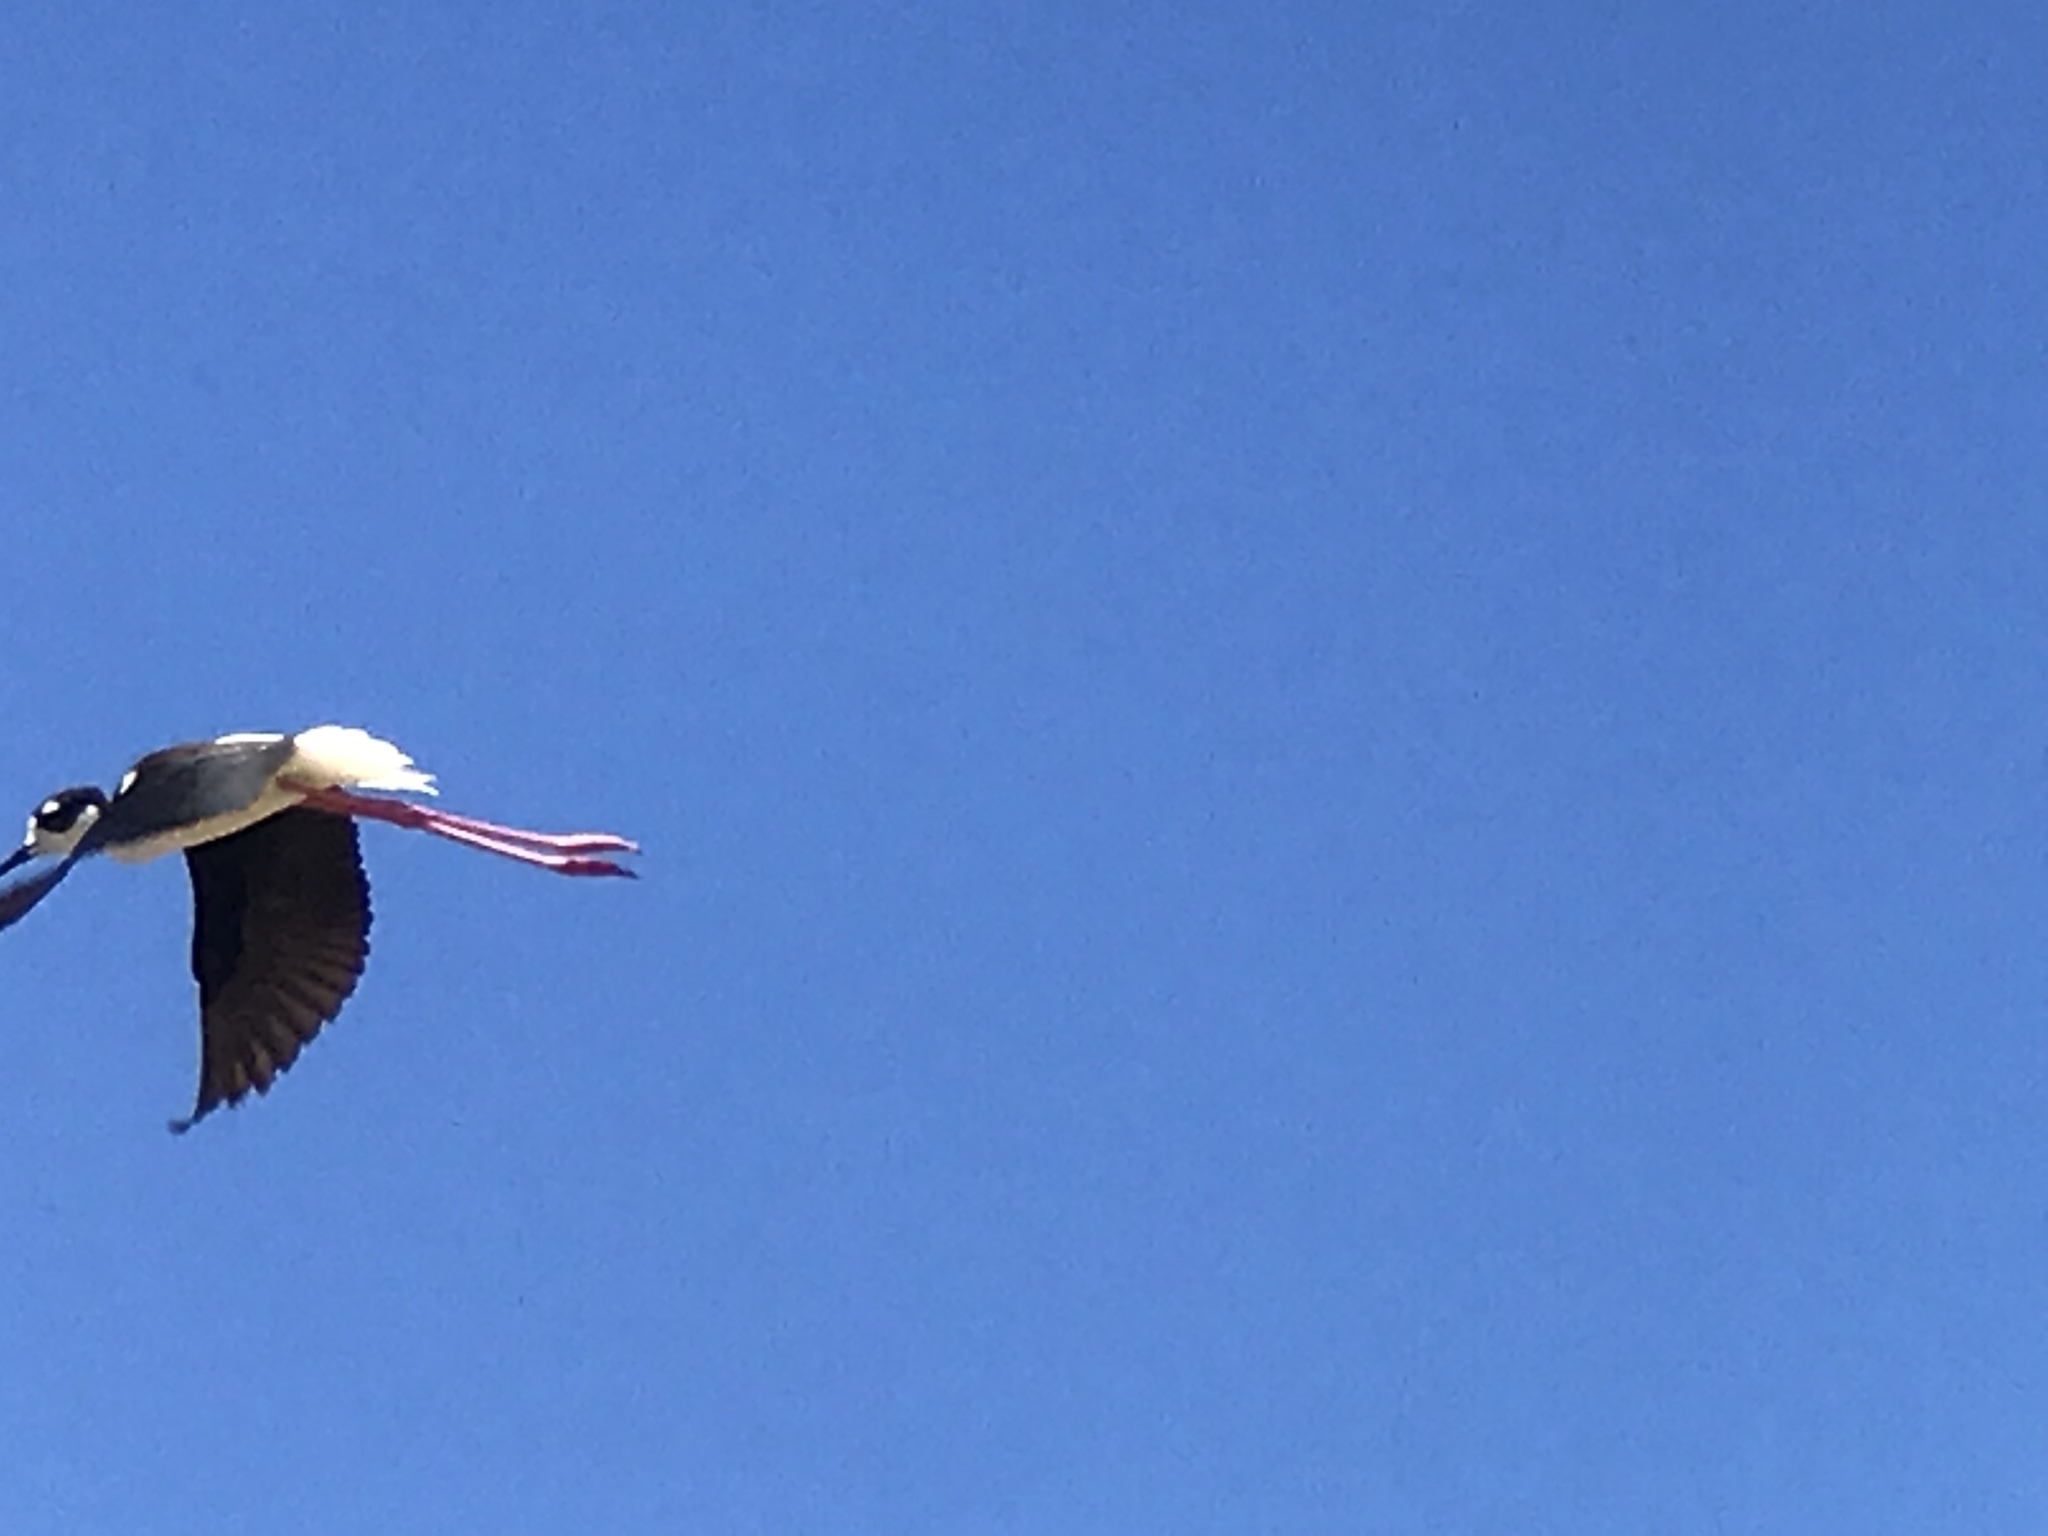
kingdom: Animalia
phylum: Chordata
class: Aves
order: Charadriiformes
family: Recurvirostridae
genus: Himantopus
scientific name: Himantopus mexicanus
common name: Black-necked stilt
